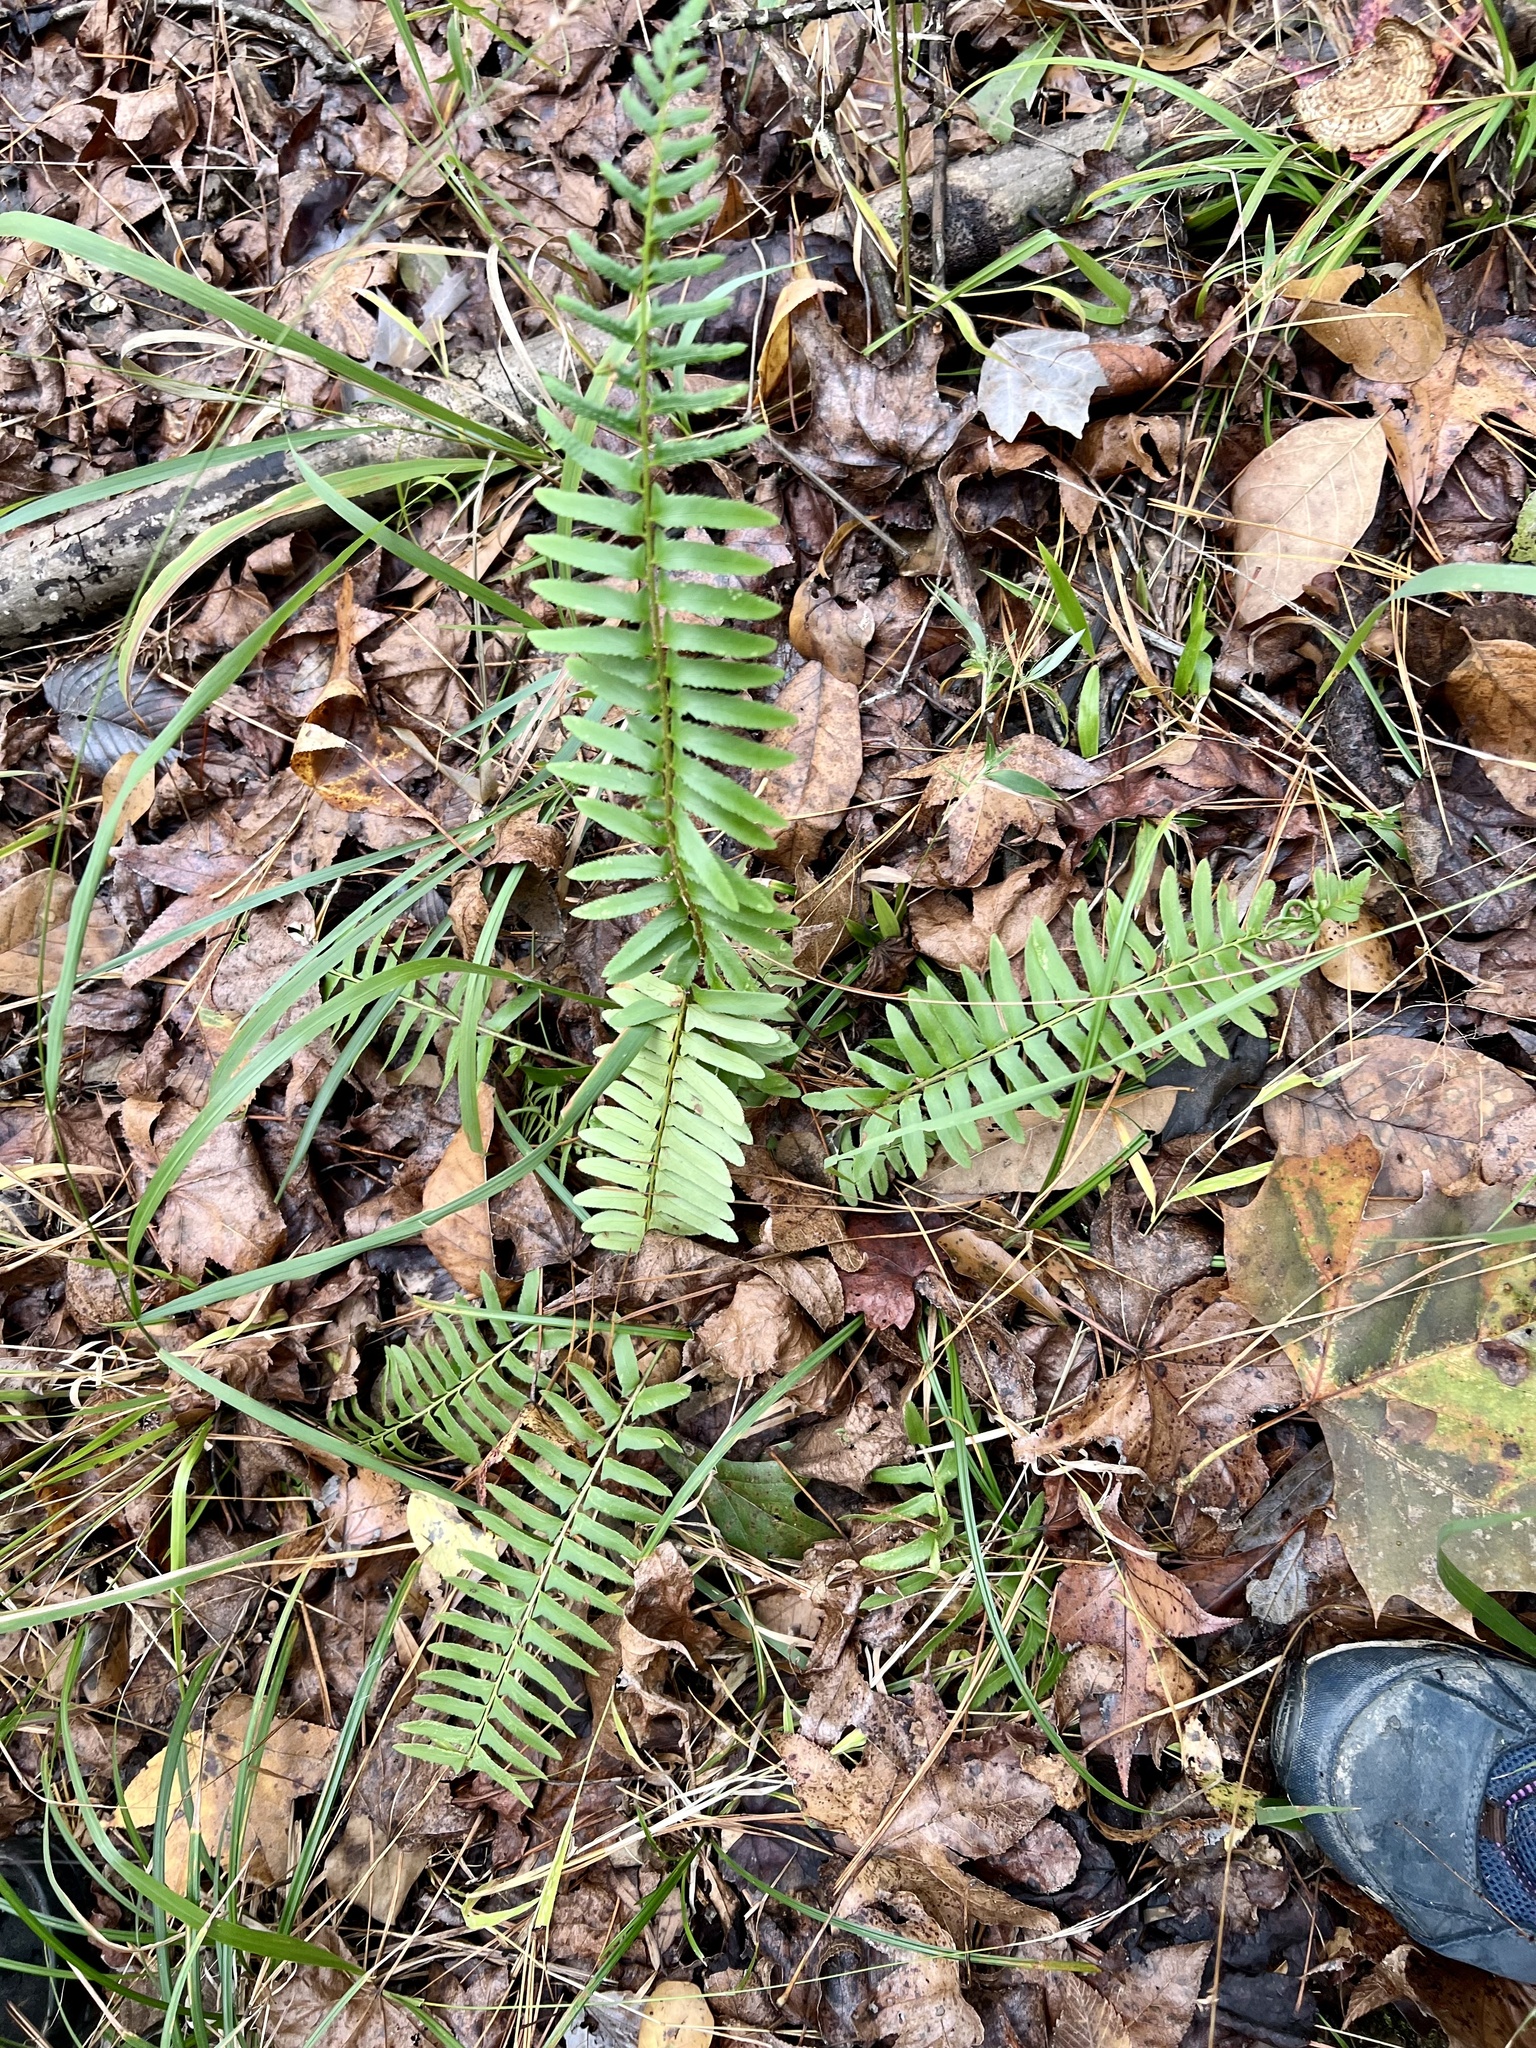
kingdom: Plantae
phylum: Tracheophyta
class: Polypodiopsida
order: Polypodiales
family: Dryopteridaceae
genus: Polystichum
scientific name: Polystichum acrostichoides
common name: Christmas fern
